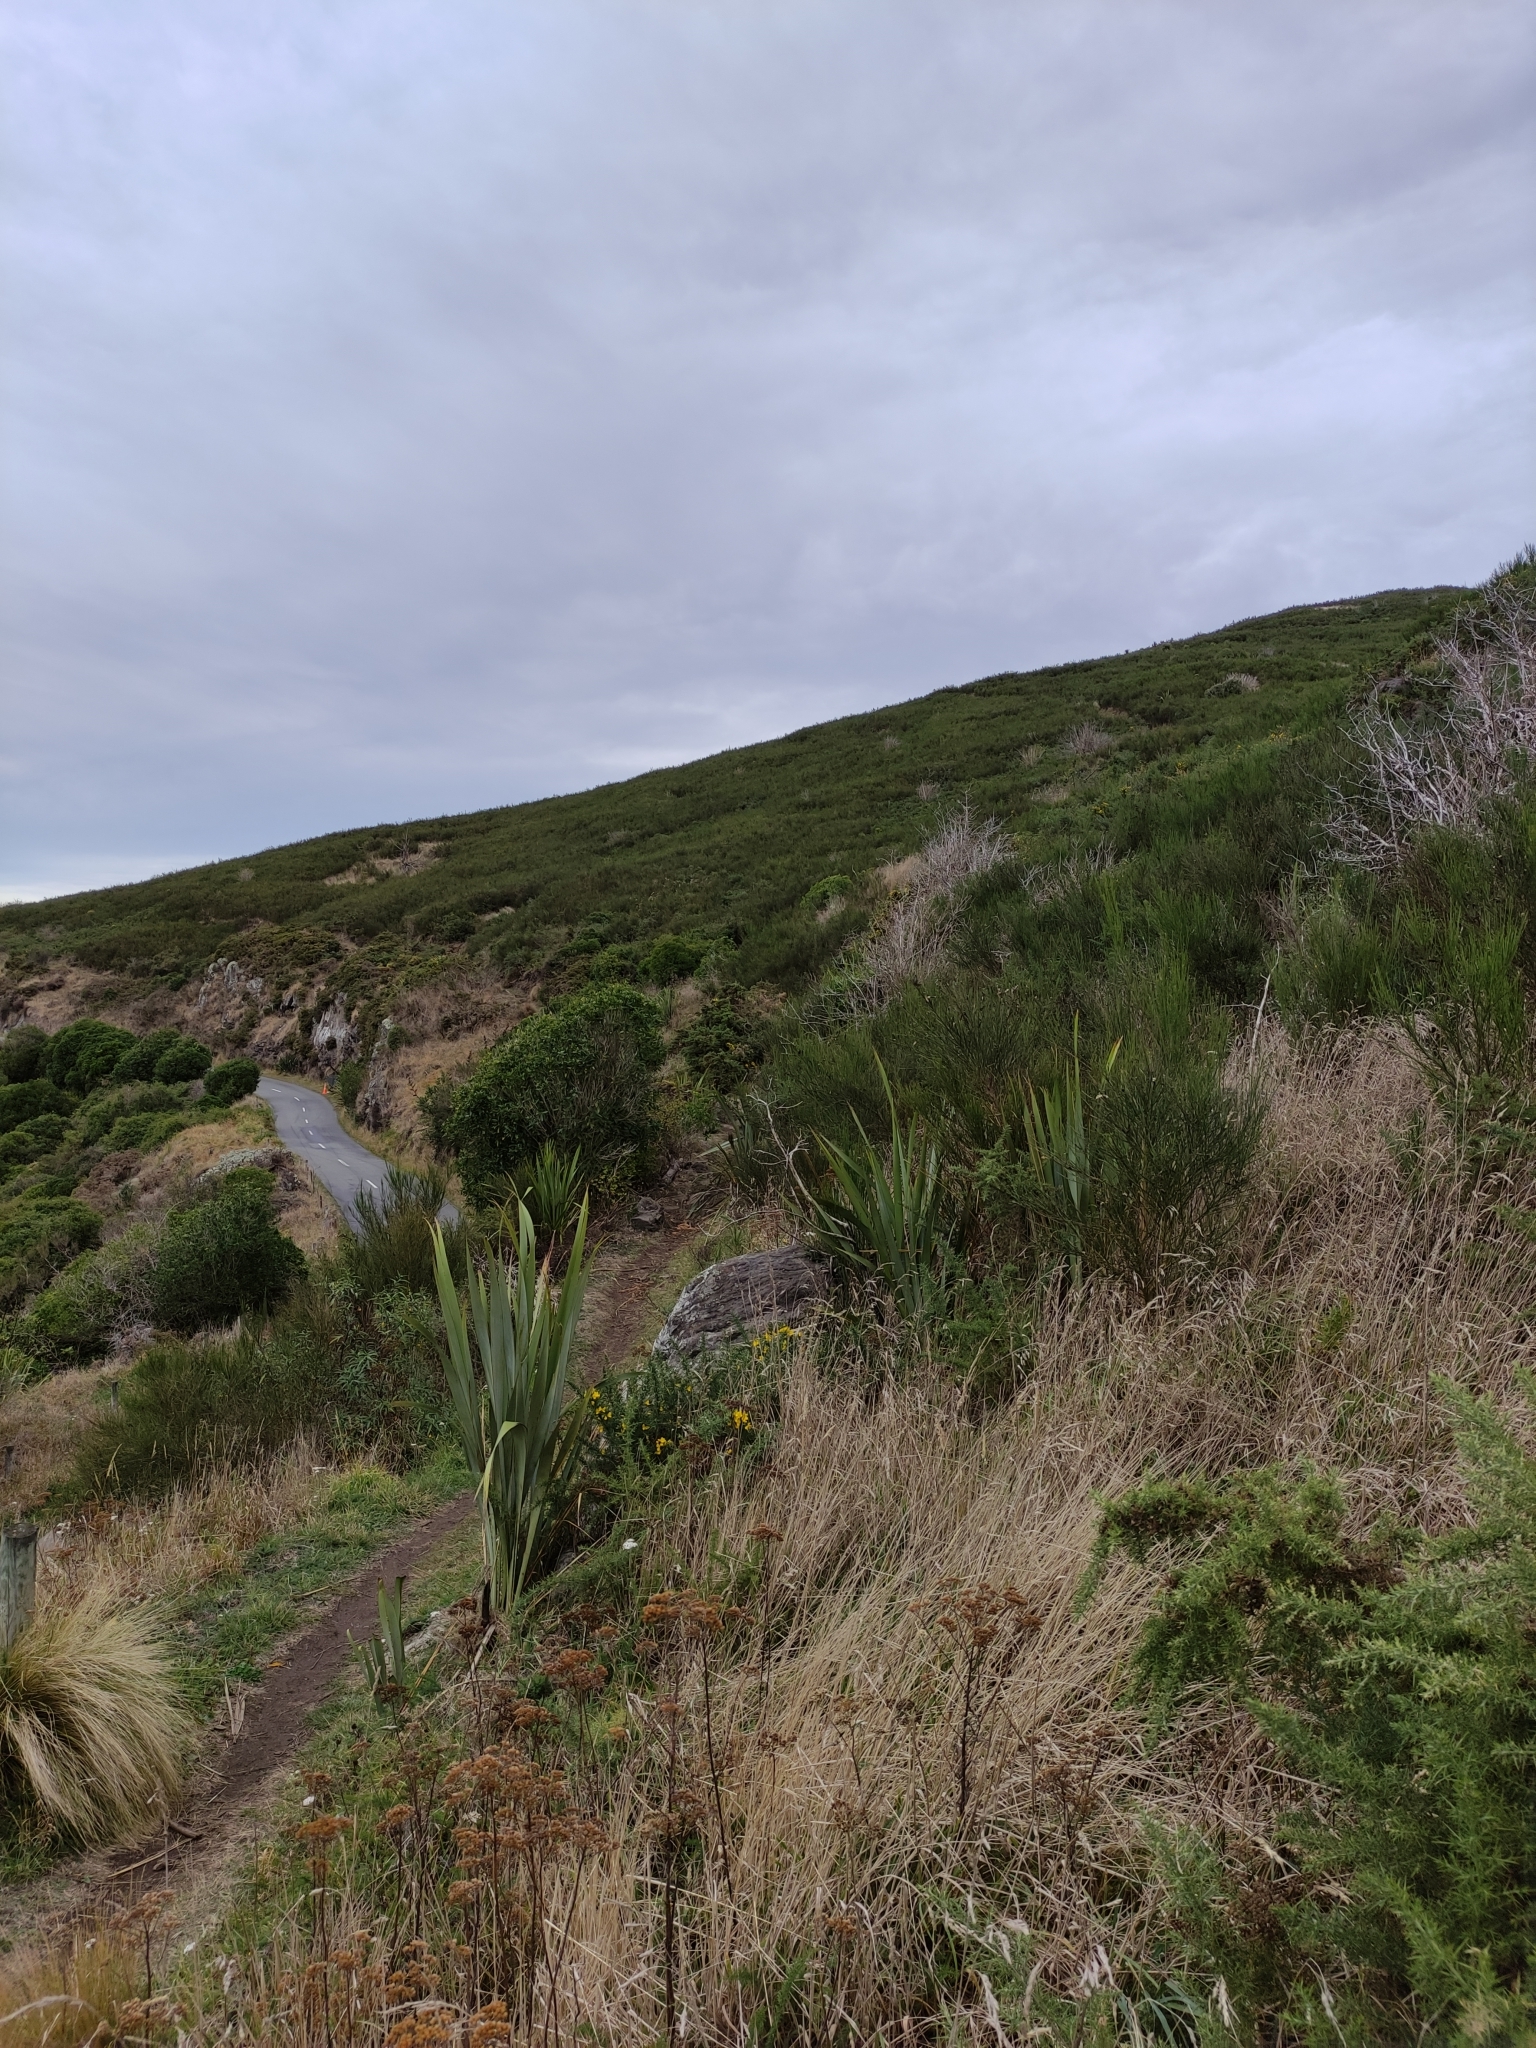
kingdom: Plantae
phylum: Tracheophyta
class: Liliopsida
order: Asparagales
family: Asphodelaceae
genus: Phormium
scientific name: Phormium tenax
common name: New zealand flax
